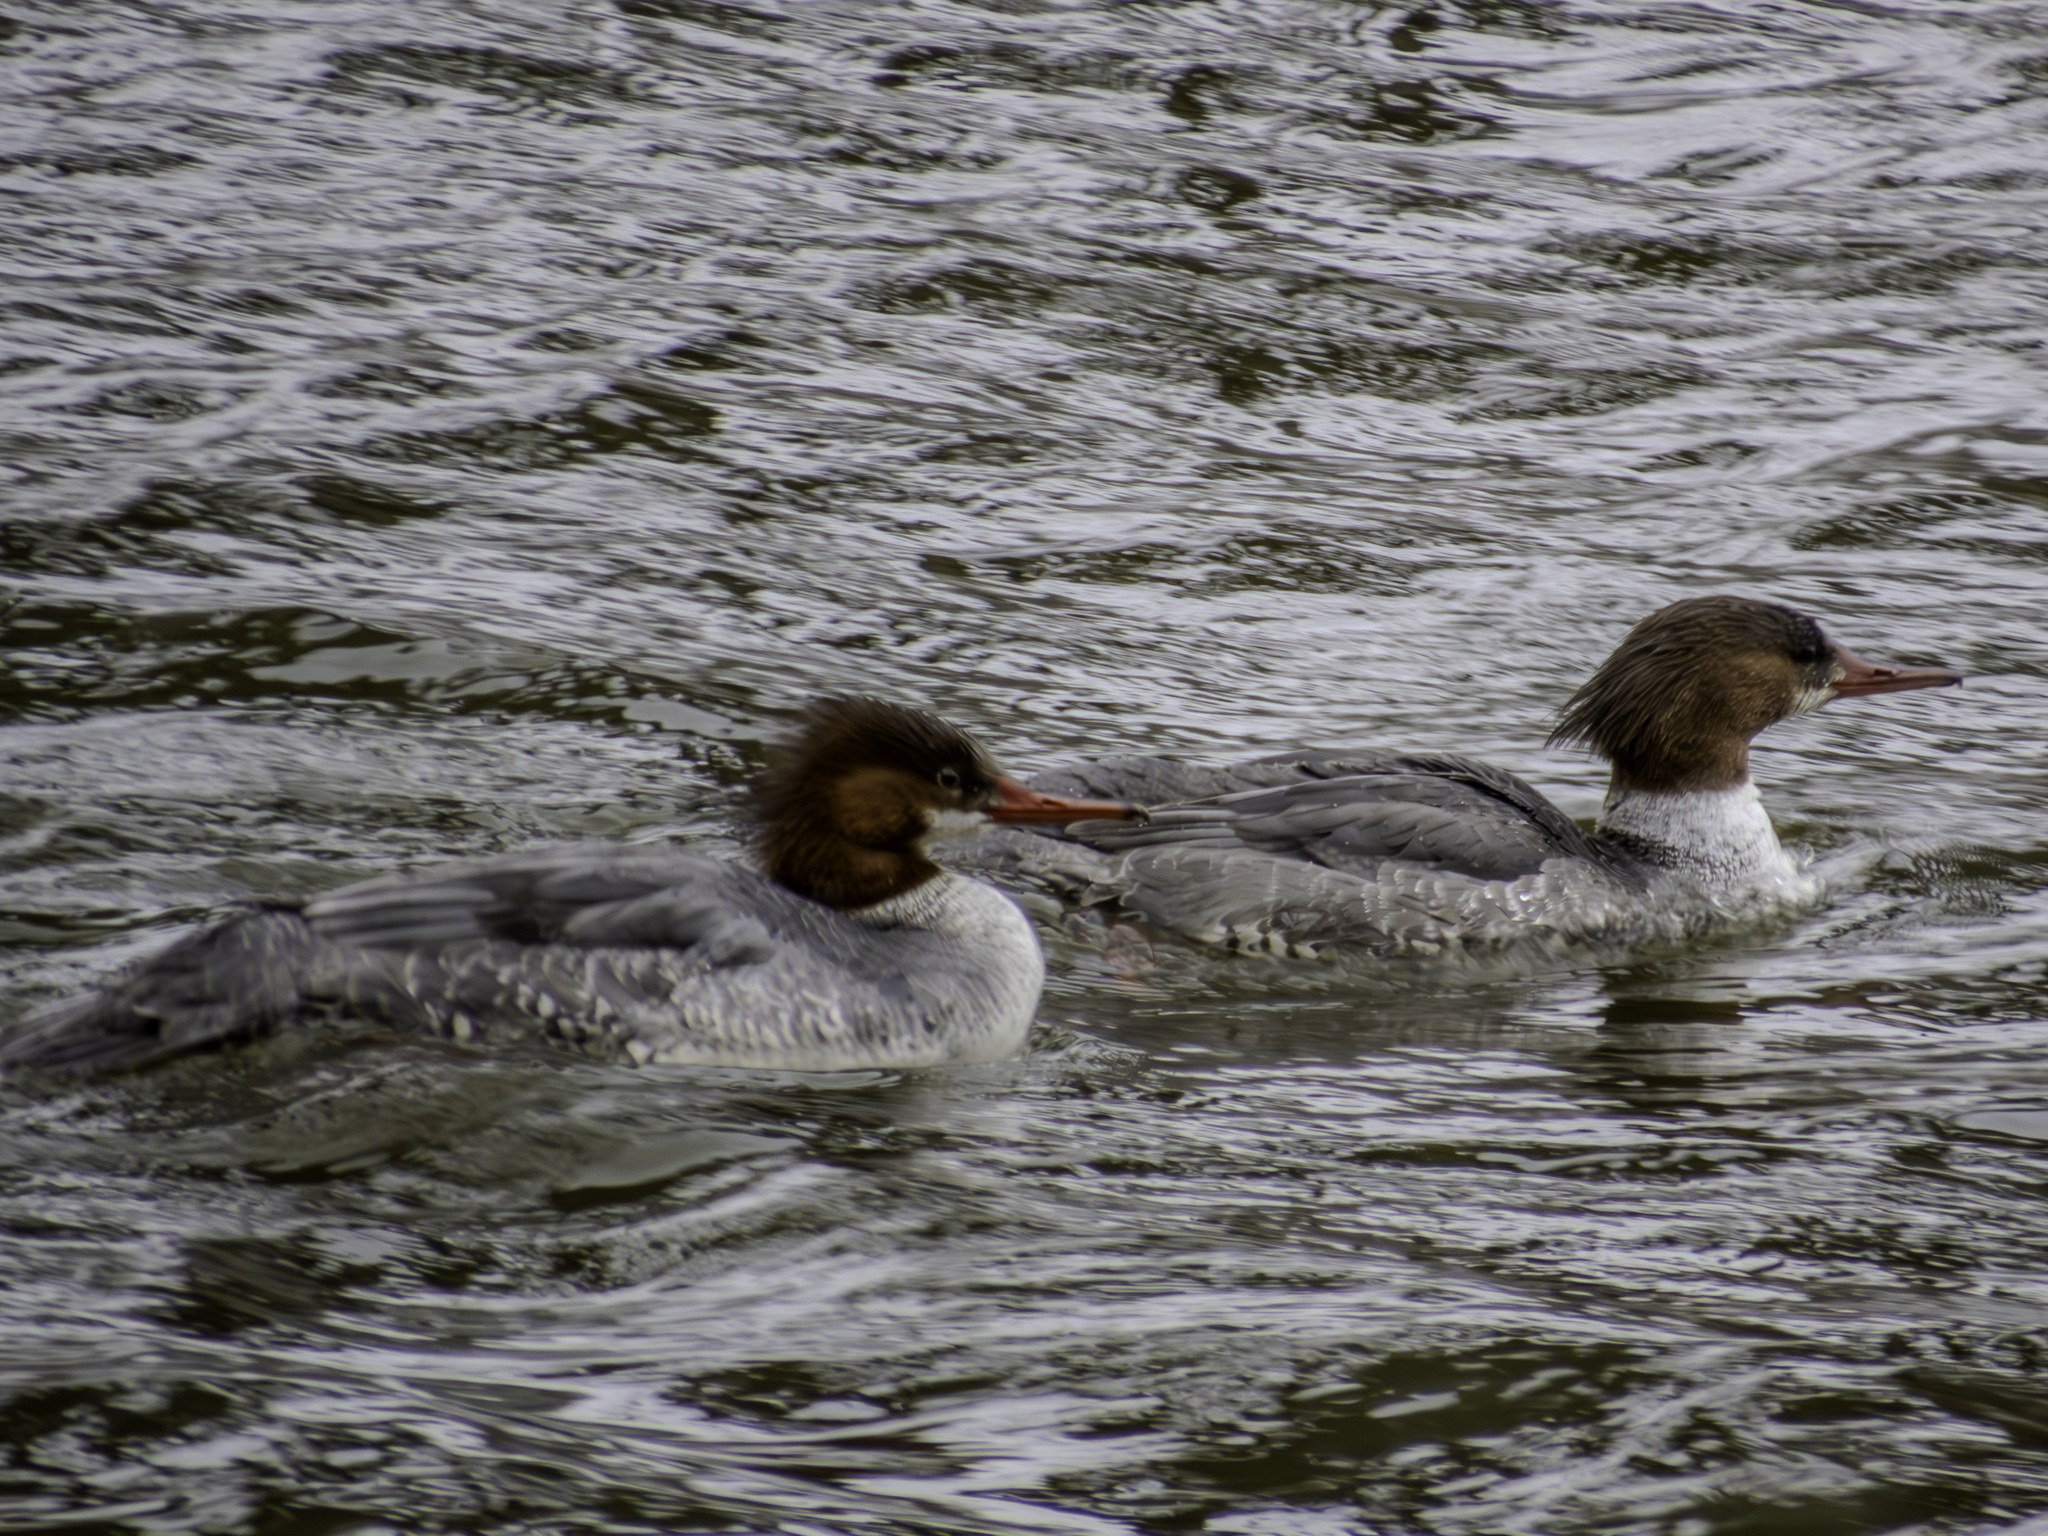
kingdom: Animalia
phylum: Chordata
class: Aves
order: Anseriformes
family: Anatidae
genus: Mergus
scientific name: Mergus merganser
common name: Common merganser
